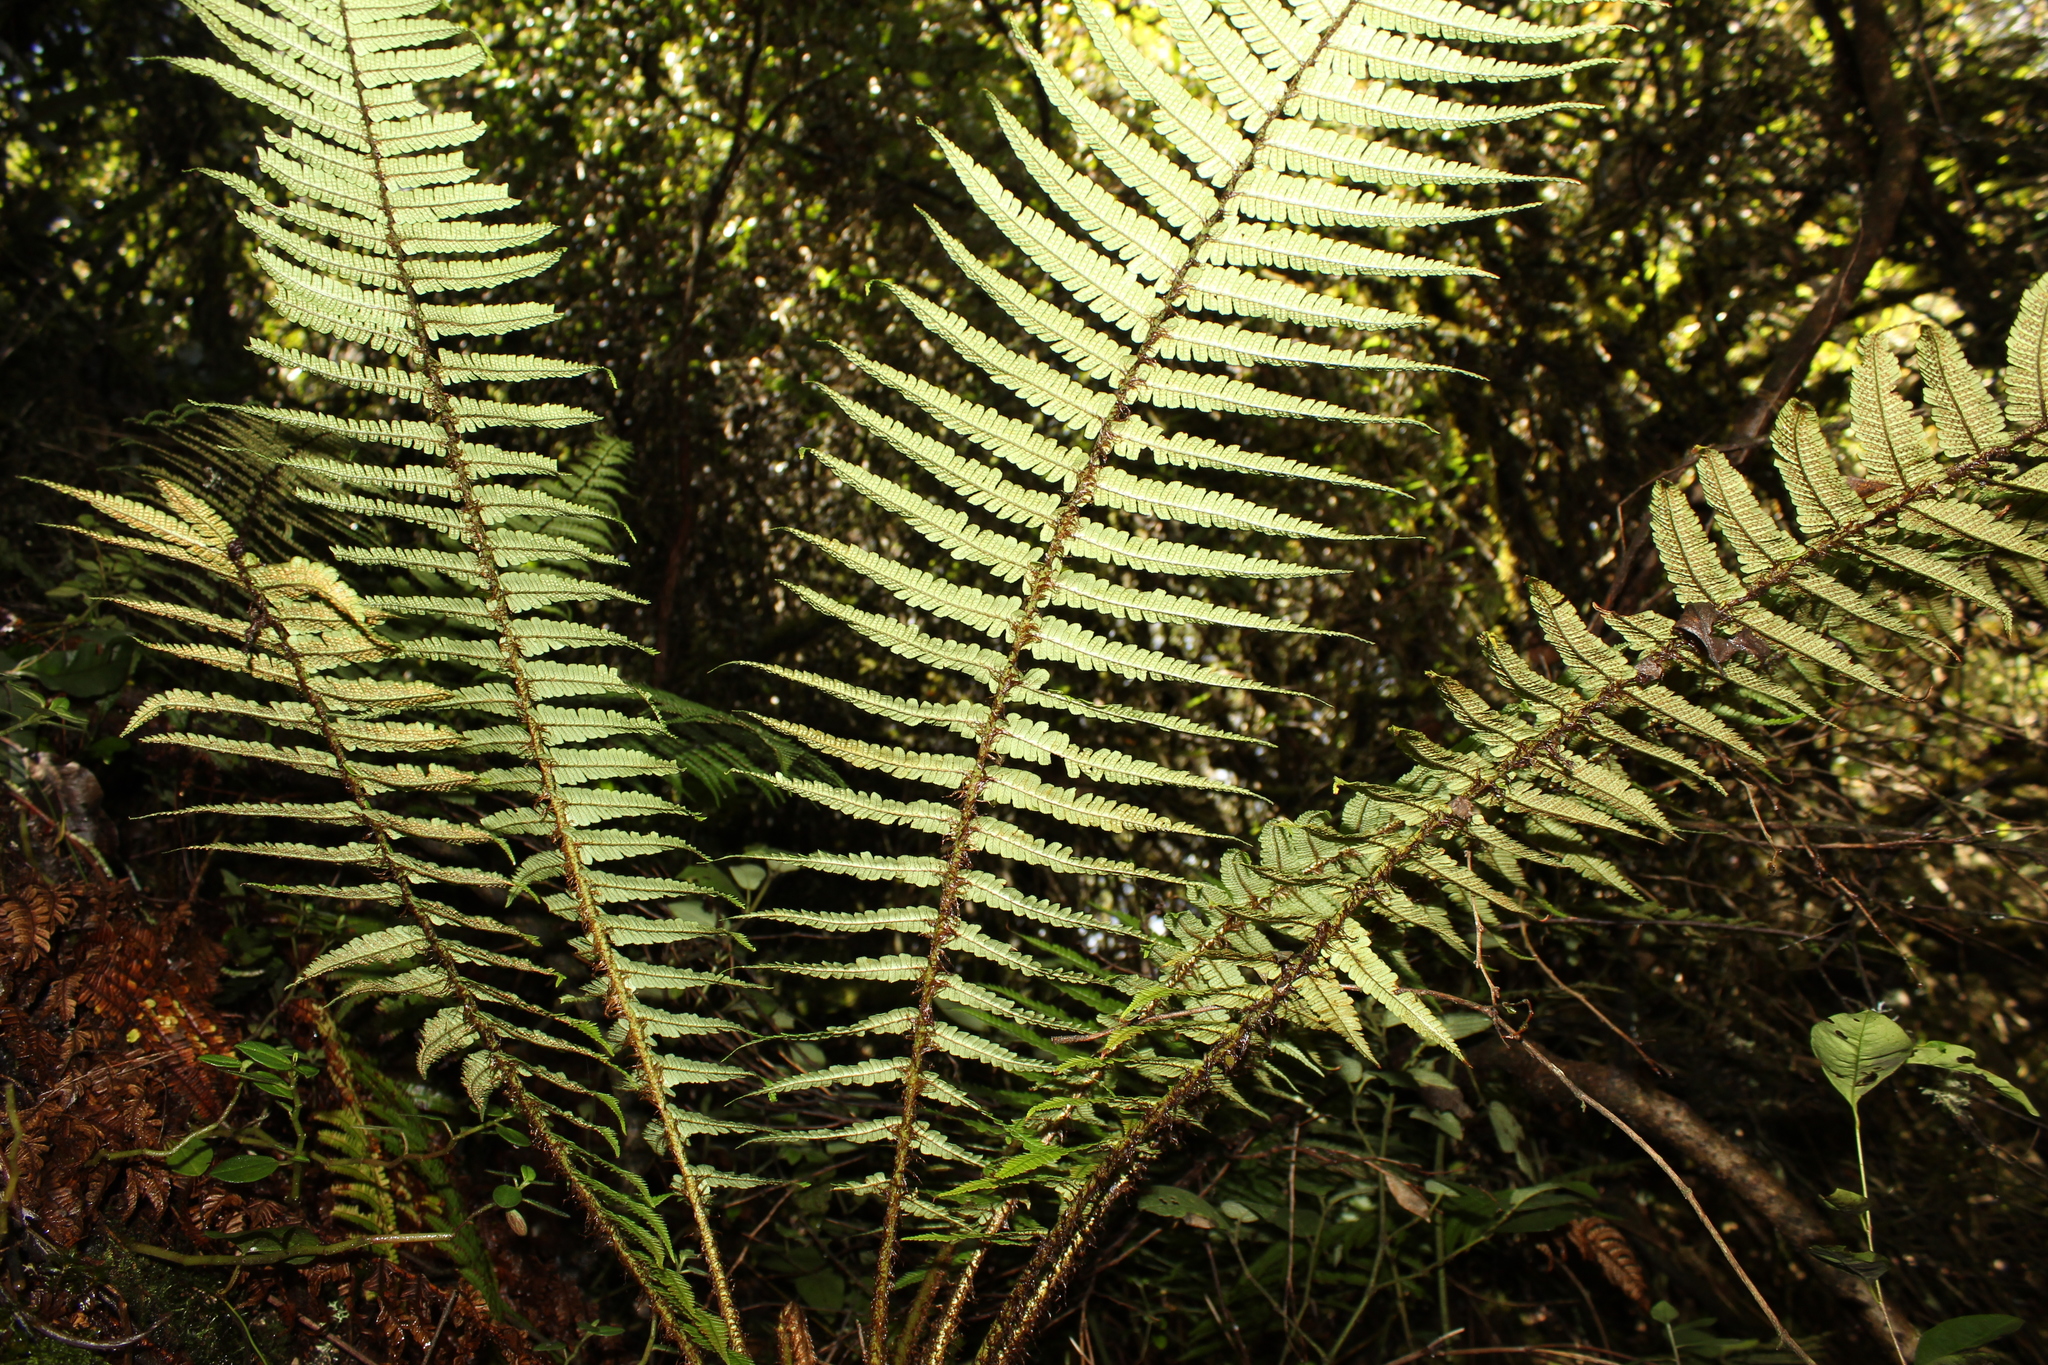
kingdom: Plantae
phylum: Tracheophyta
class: Polypodiopsida
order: Polypodiales
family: Dryopteridaceae
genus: Dryopteris
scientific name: Dryopteris wallichiana
